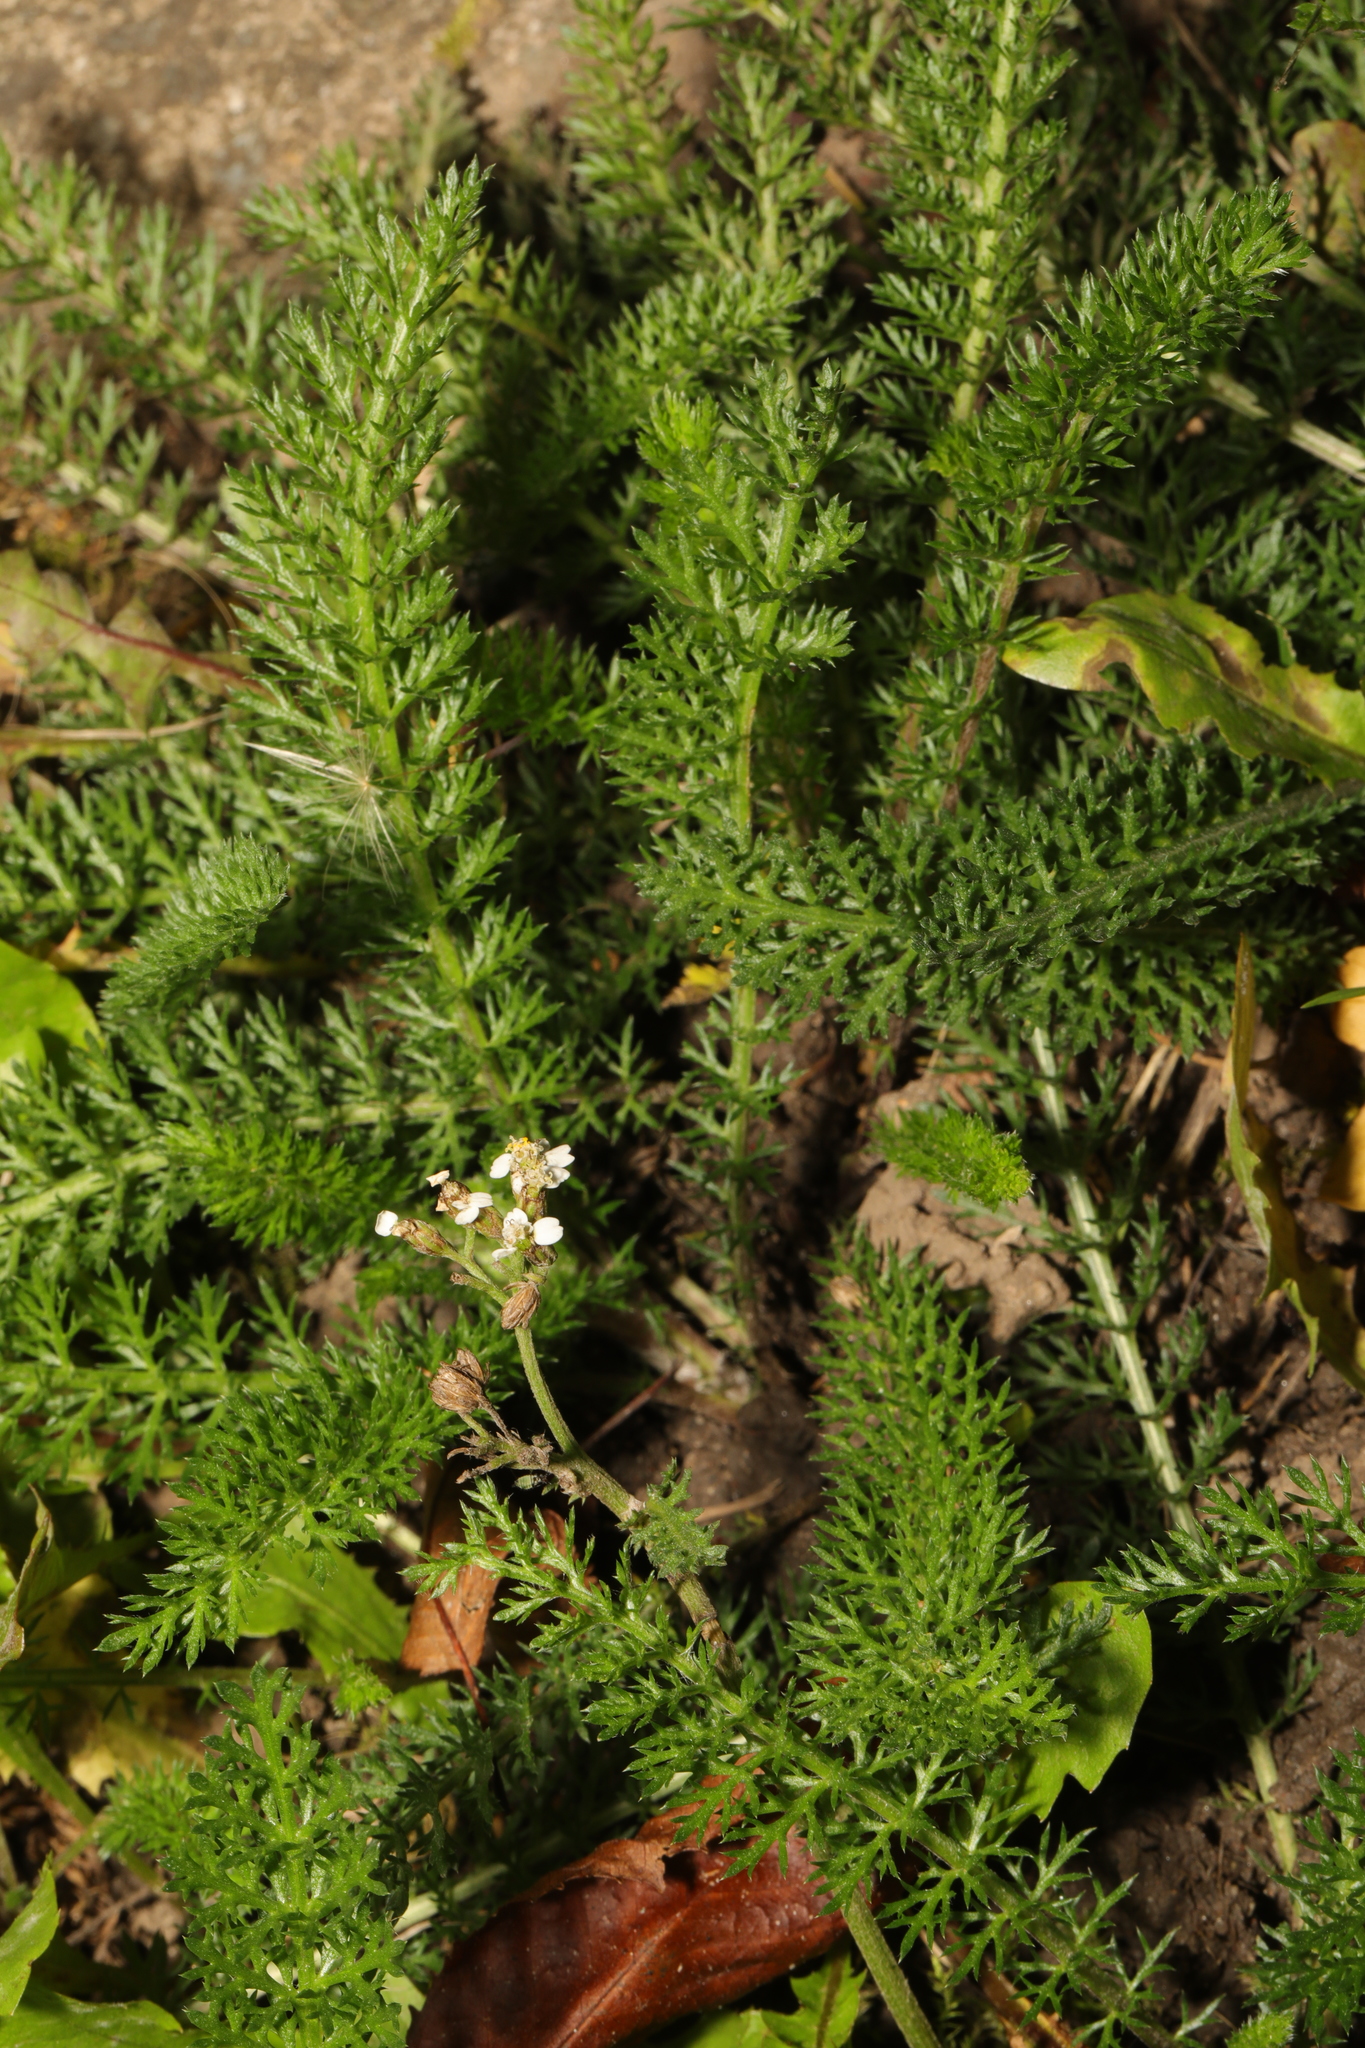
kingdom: Plantae
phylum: Tracheophyta
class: Magnoliopsida
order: Asterales
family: Asteraceae
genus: Achillea
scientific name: Achillea millefolium
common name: Yarrow
